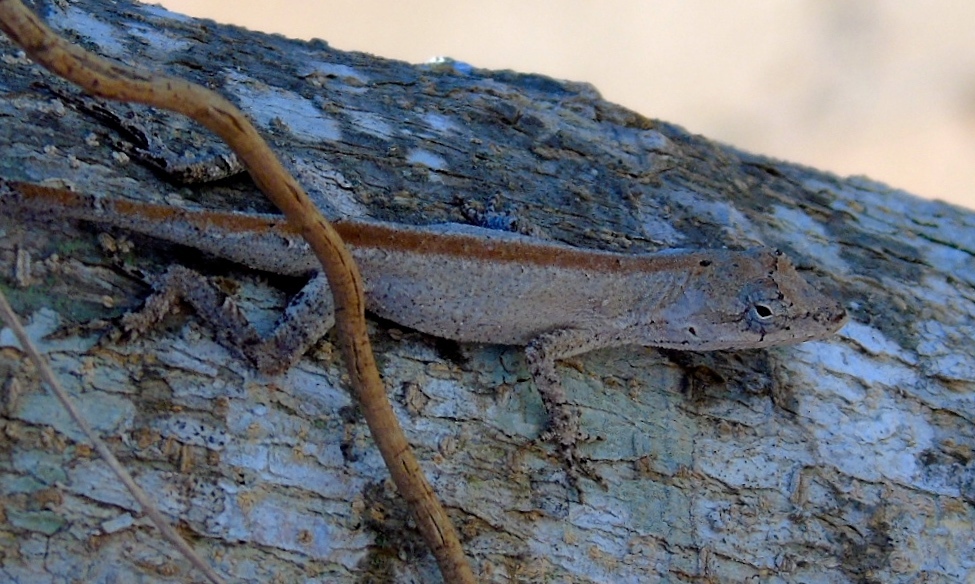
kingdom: Animalia
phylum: Chordata
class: Squamata
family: Dactyloidae
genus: Anolis
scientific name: Anolis nebulosus
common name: Clouded anole
